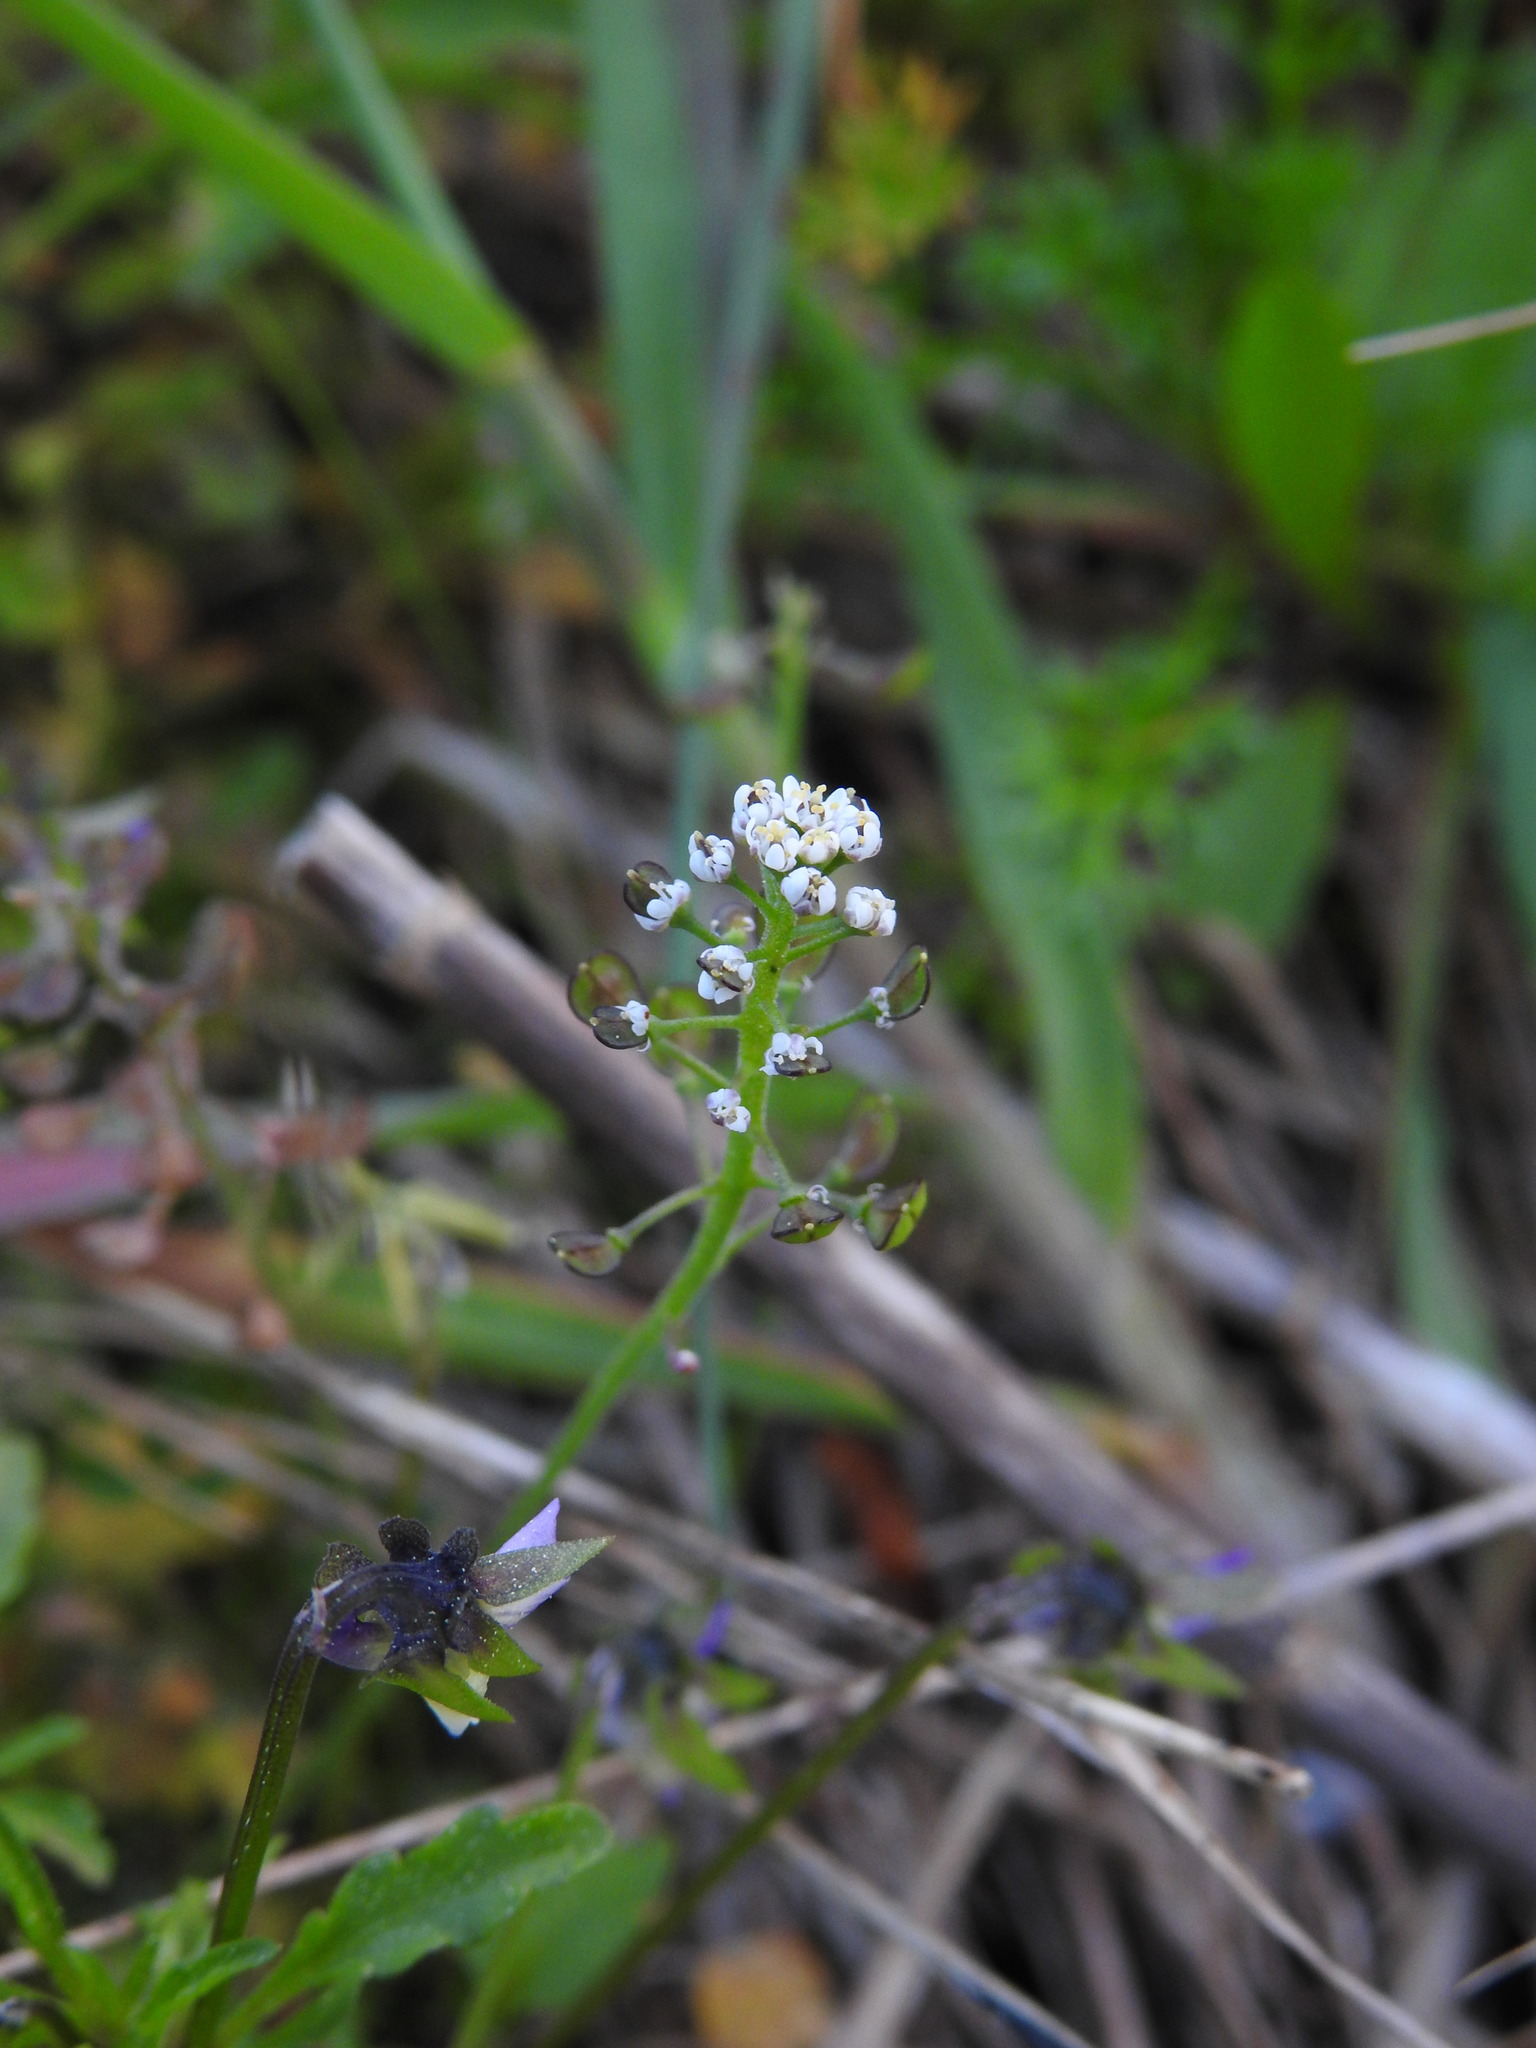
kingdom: Plantae
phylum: Tracheophyta
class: Magnoliopsida
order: Brassicales
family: Brassicaceae
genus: Teesdalia
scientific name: Teesdalia nudicaulis
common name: Shepherd's cress
